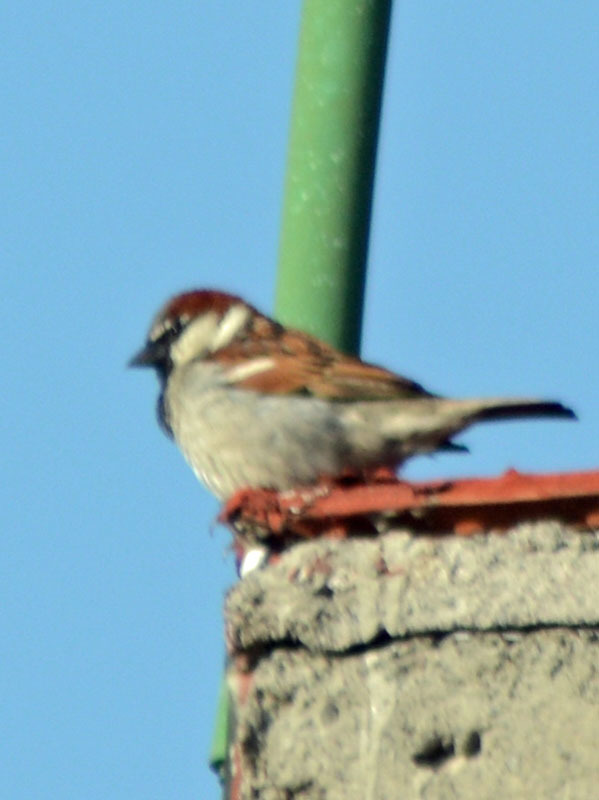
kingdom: Animalia
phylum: Chordata
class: Aves
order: Passeriformes
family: Passeridae
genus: Passer
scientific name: Passer domesticus
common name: House sparrow
